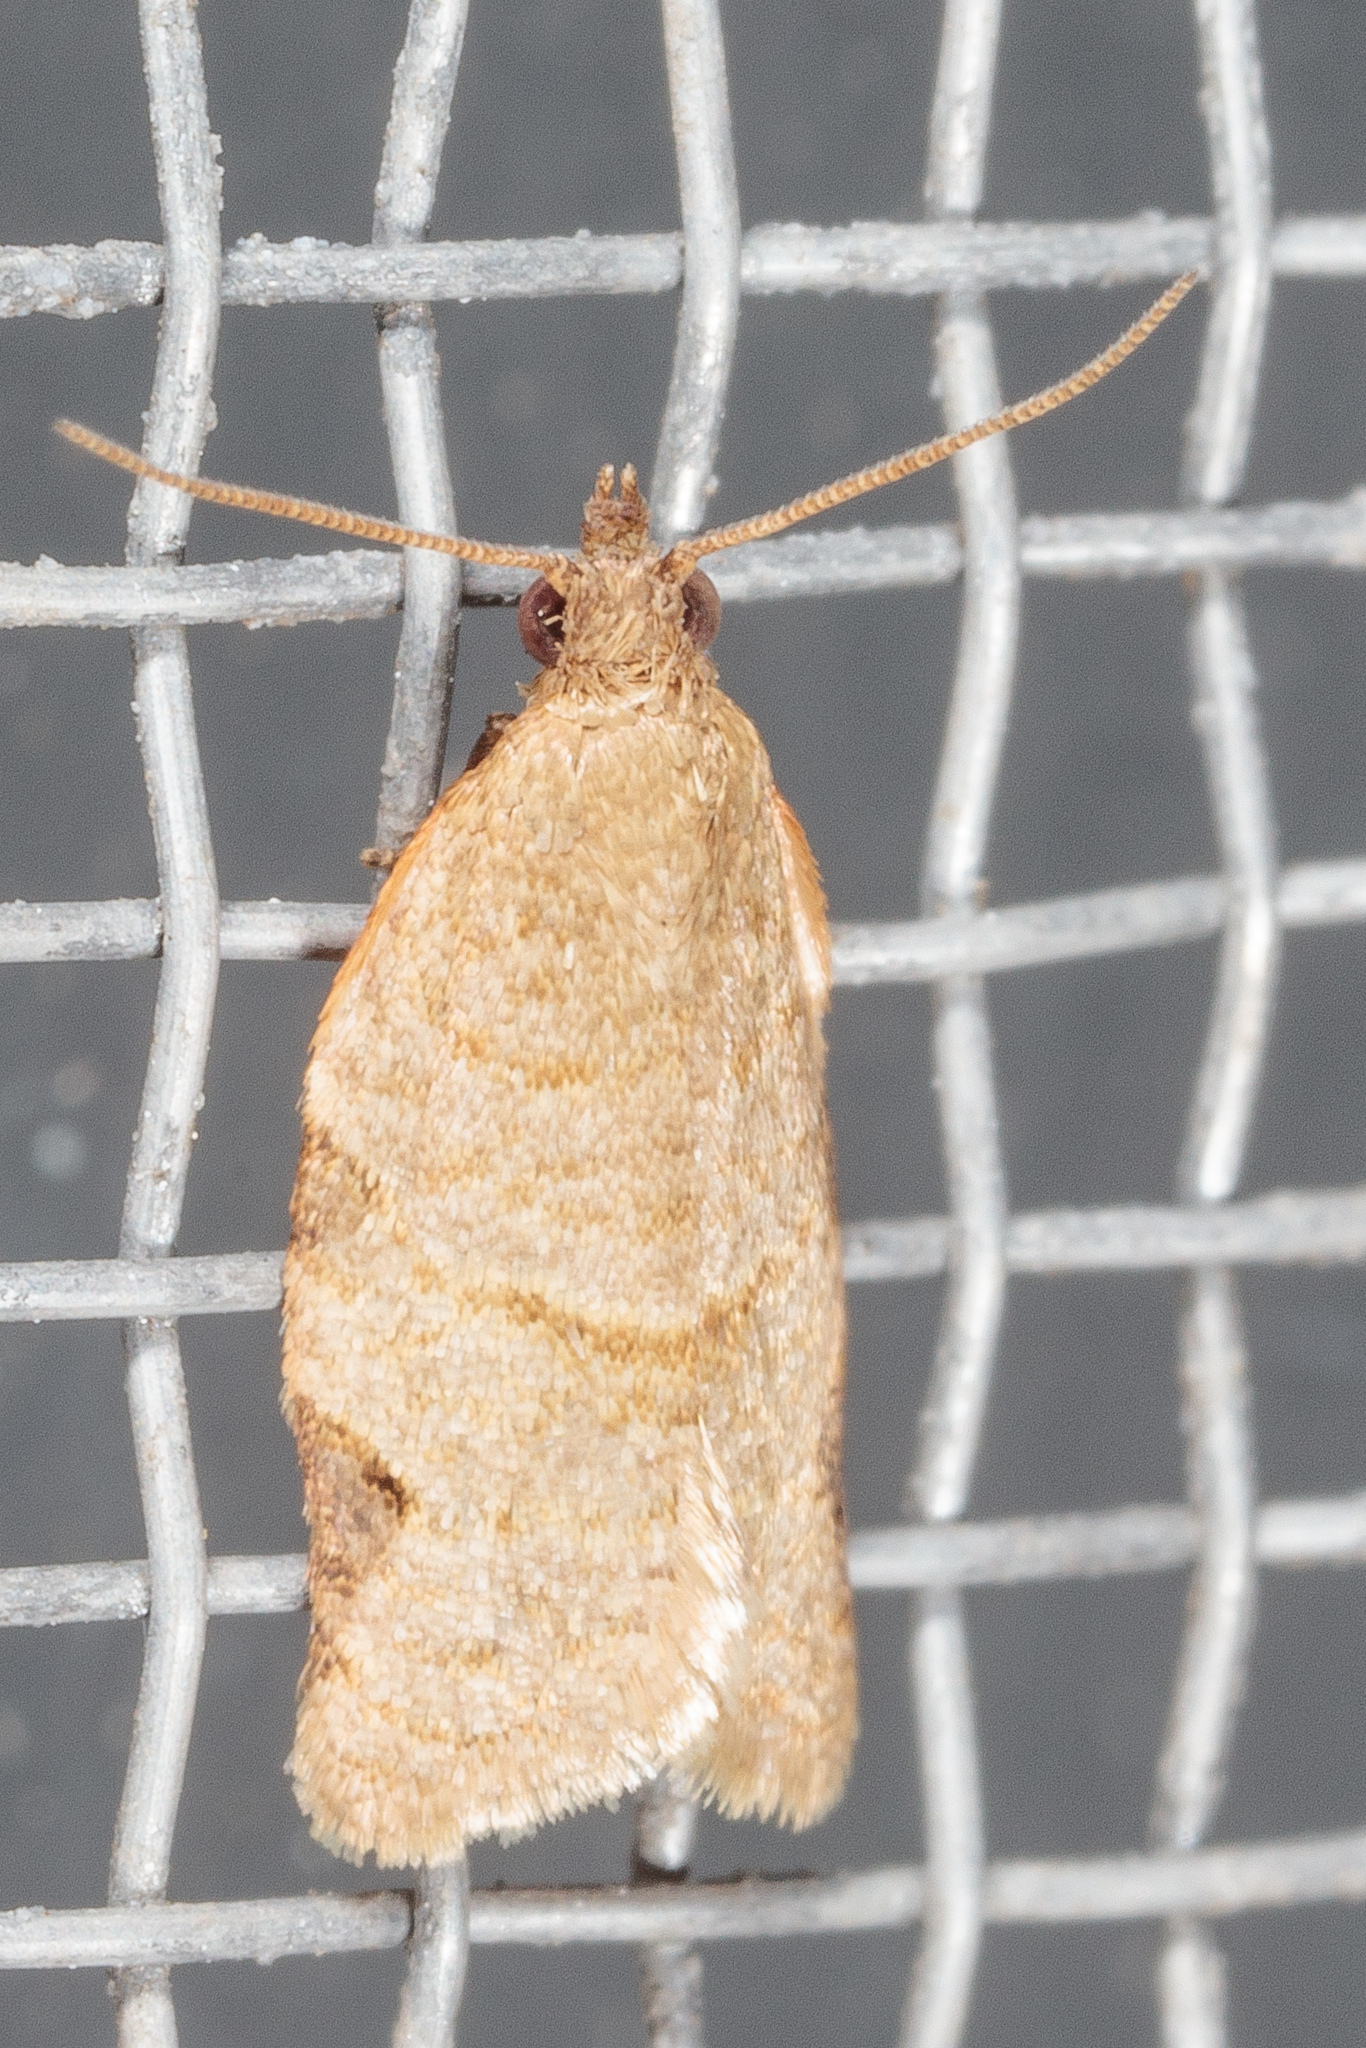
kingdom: Animalia
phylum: Arthropoda
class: Insecta
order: Lepidoptera
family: Tortricidae
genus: Clepsis
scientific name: Clepsis virescana
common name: Greenish apple moth
